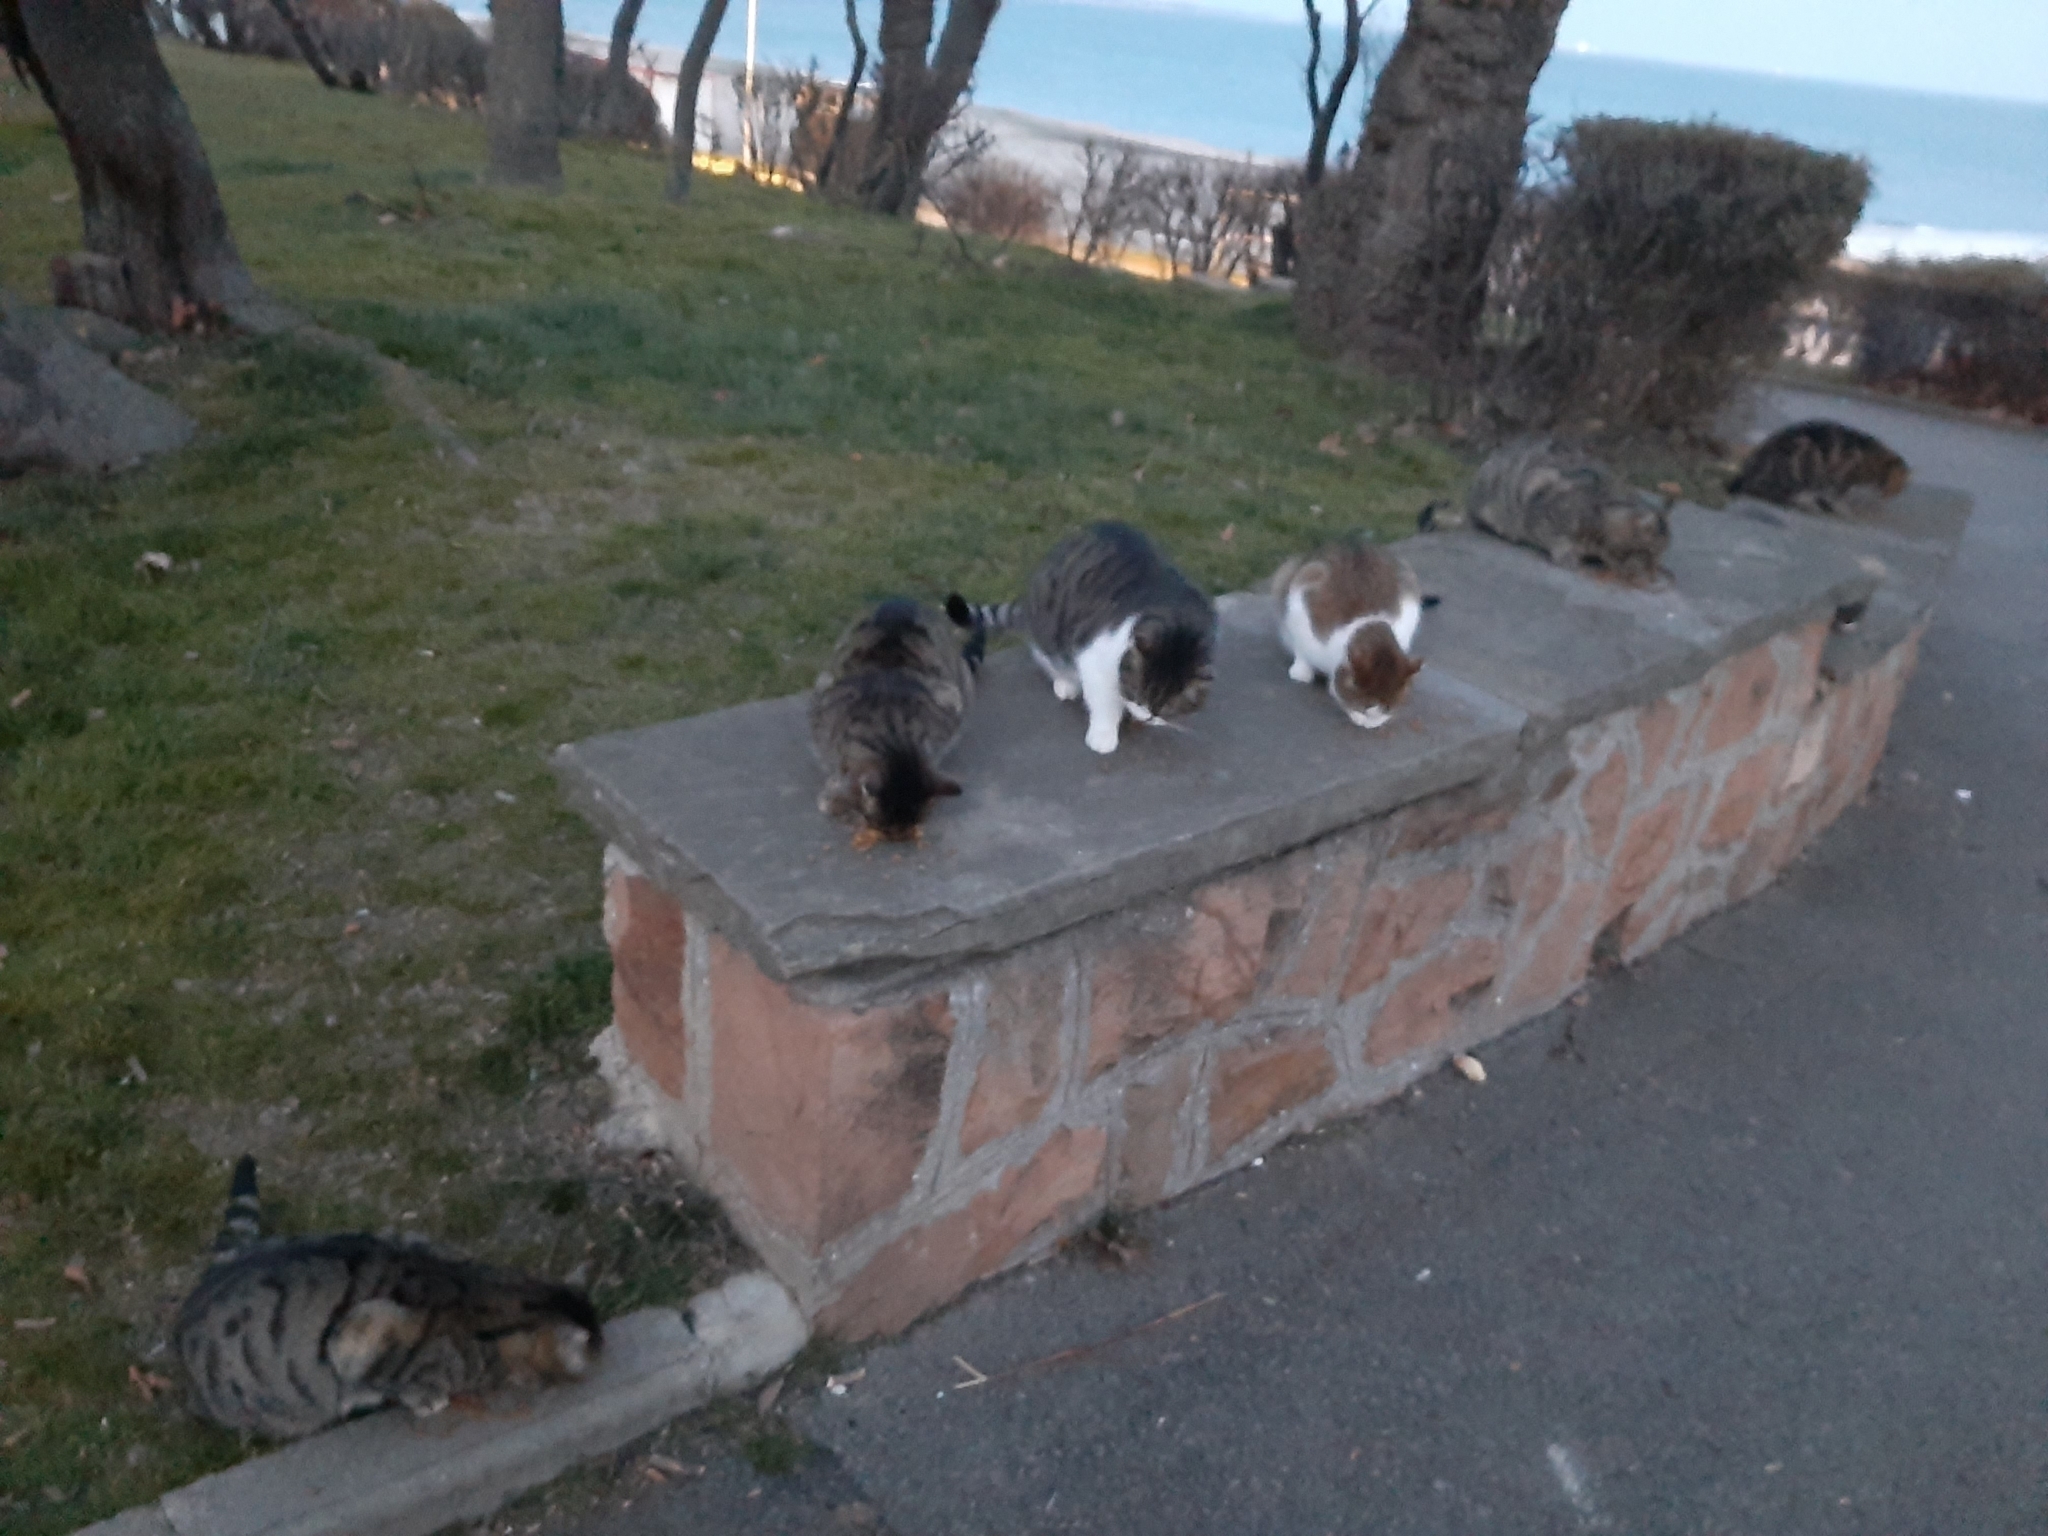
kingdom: Animalia
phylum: Chordata
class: Mammalia
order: Carnivora
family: Felidae
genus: Felis
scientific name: Felis catus
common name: Domestic cat
